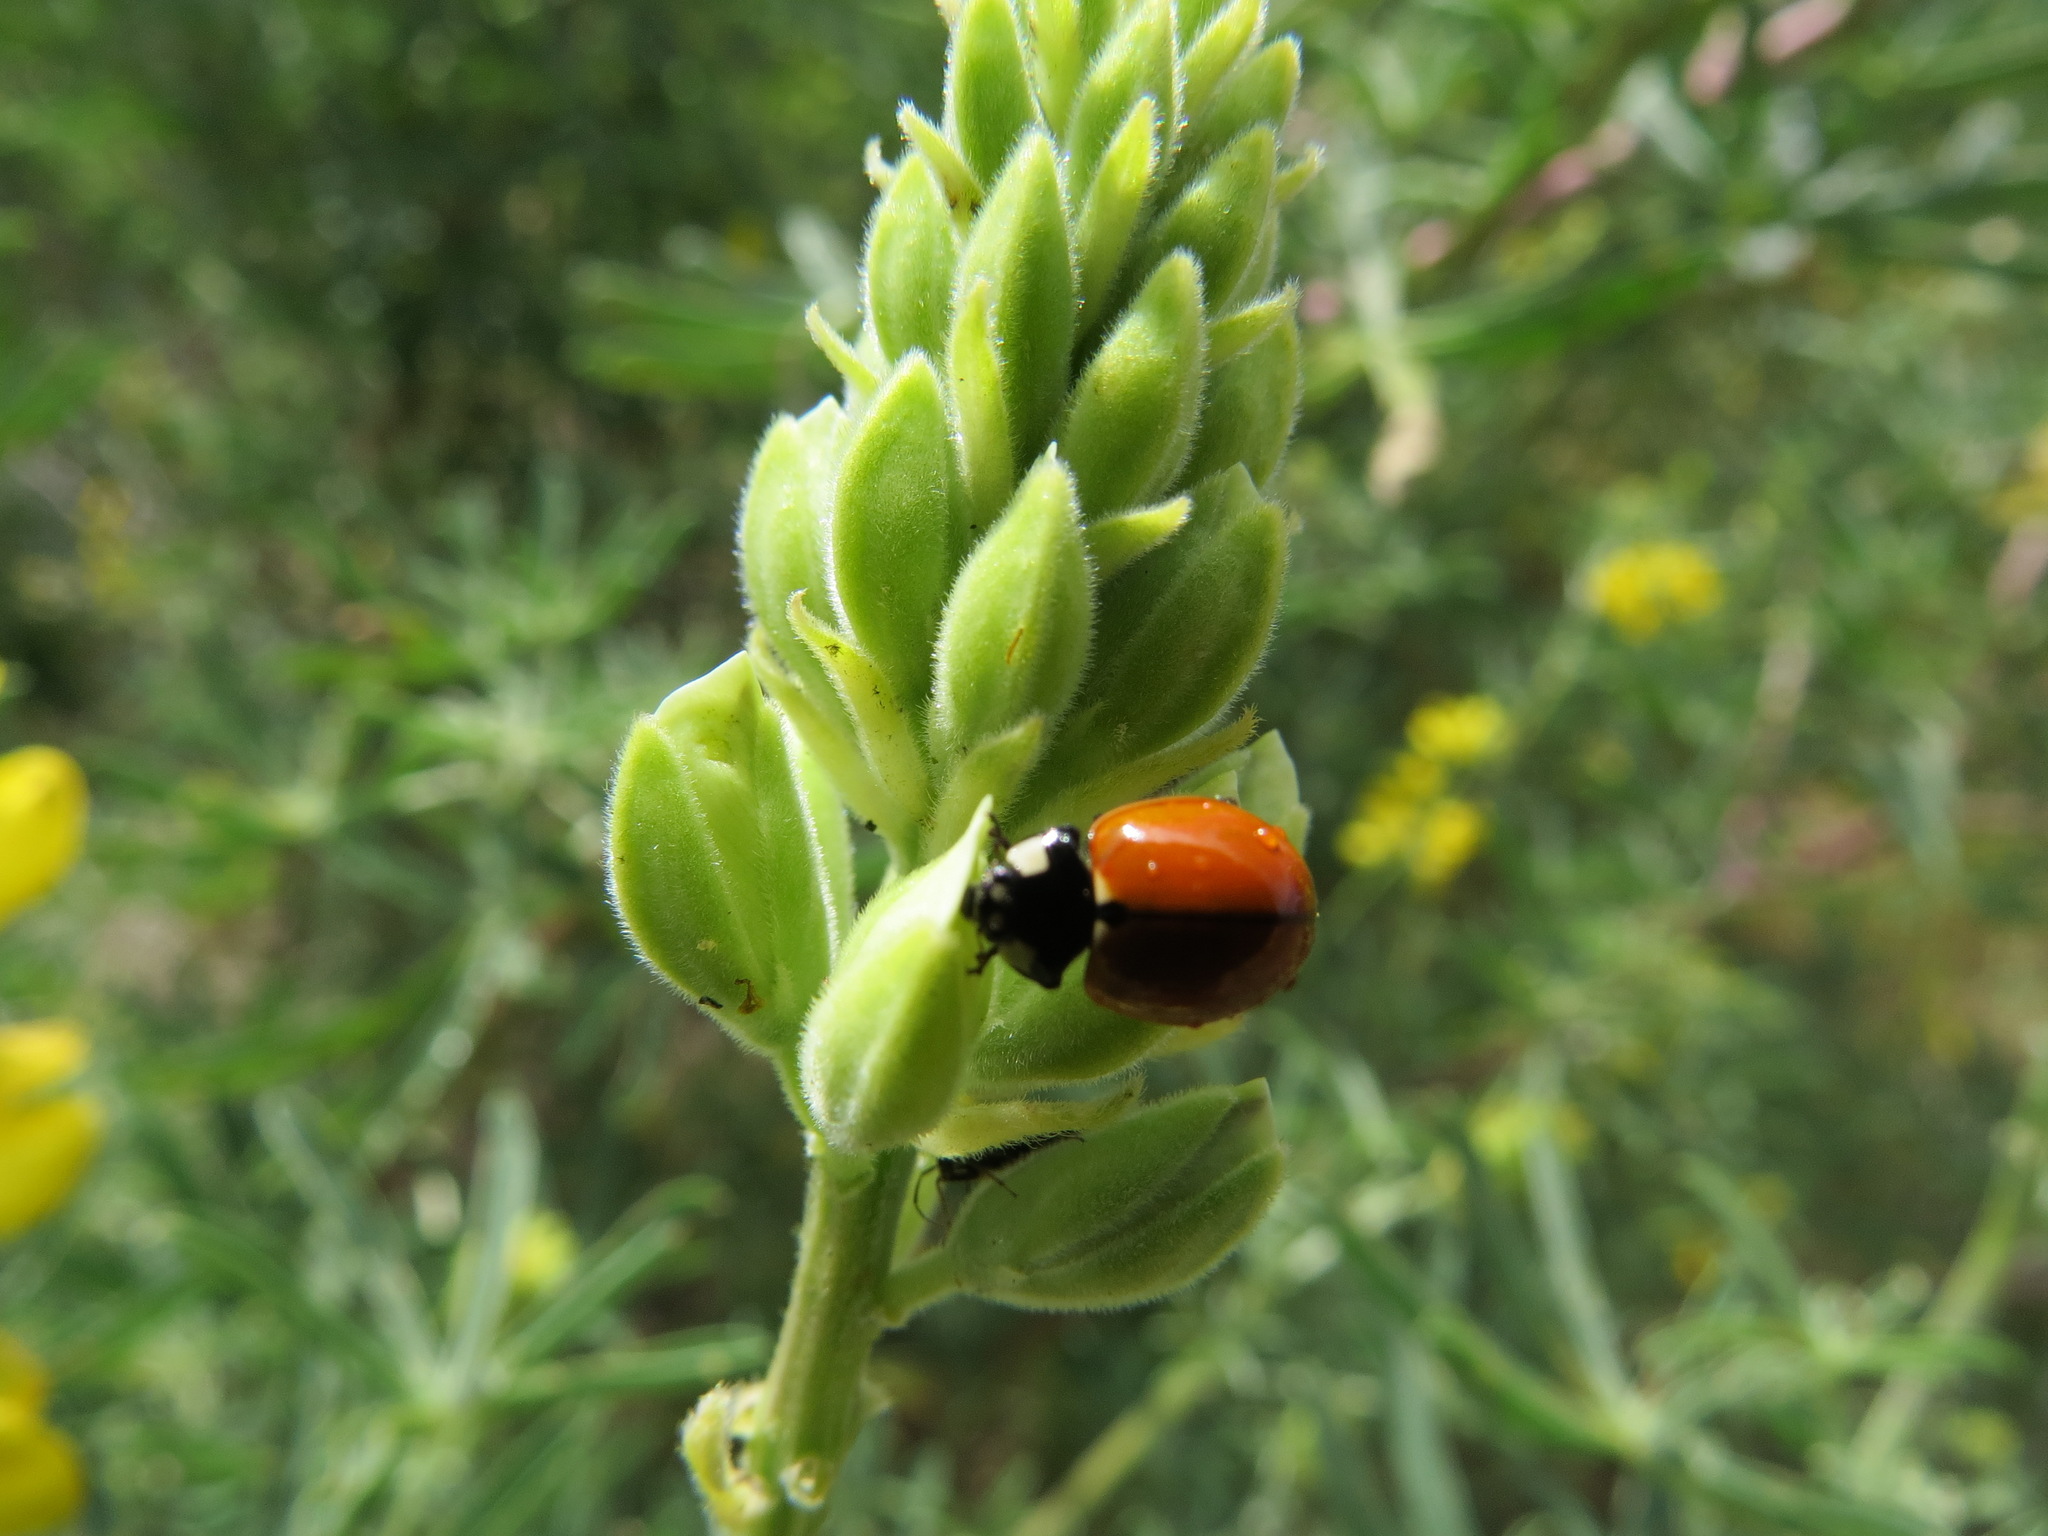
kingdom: Animalia
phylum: Arthropoda
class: Insecta
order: Coleoptera
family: Coccinellidae
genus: Coccinella
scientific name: Coccinella californica
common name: Lady beetle
